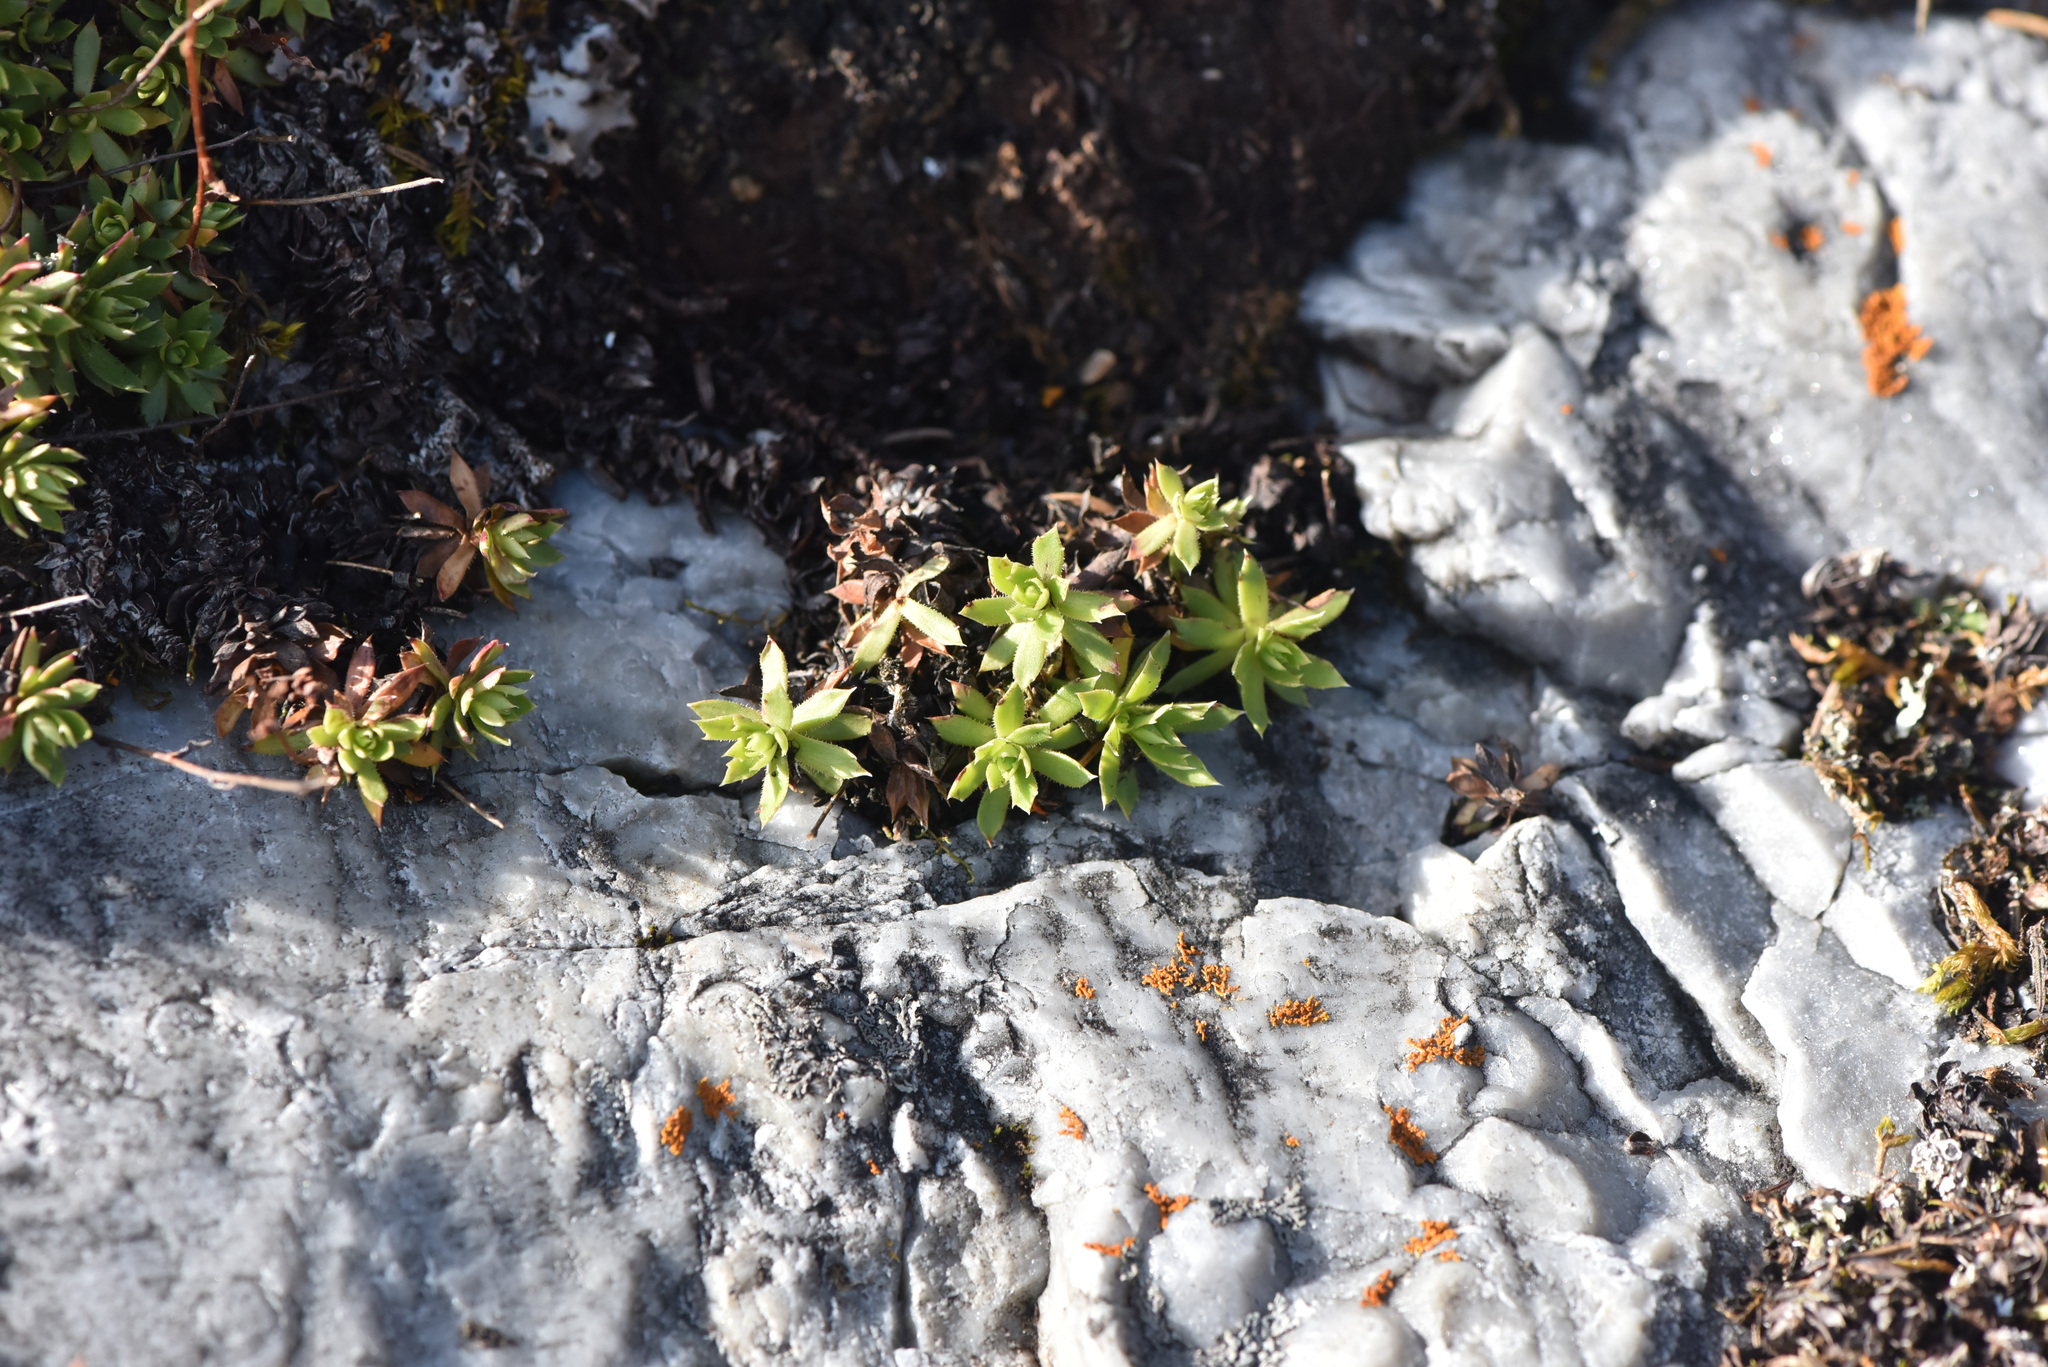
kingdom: Plantae
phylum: Tracheophyta
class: Magnoliopsida
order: Saxifragales
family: Saxifragaceae
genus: Saxifraga
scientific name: Saxifraga tricuspidata
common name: Prickly saxifrage
